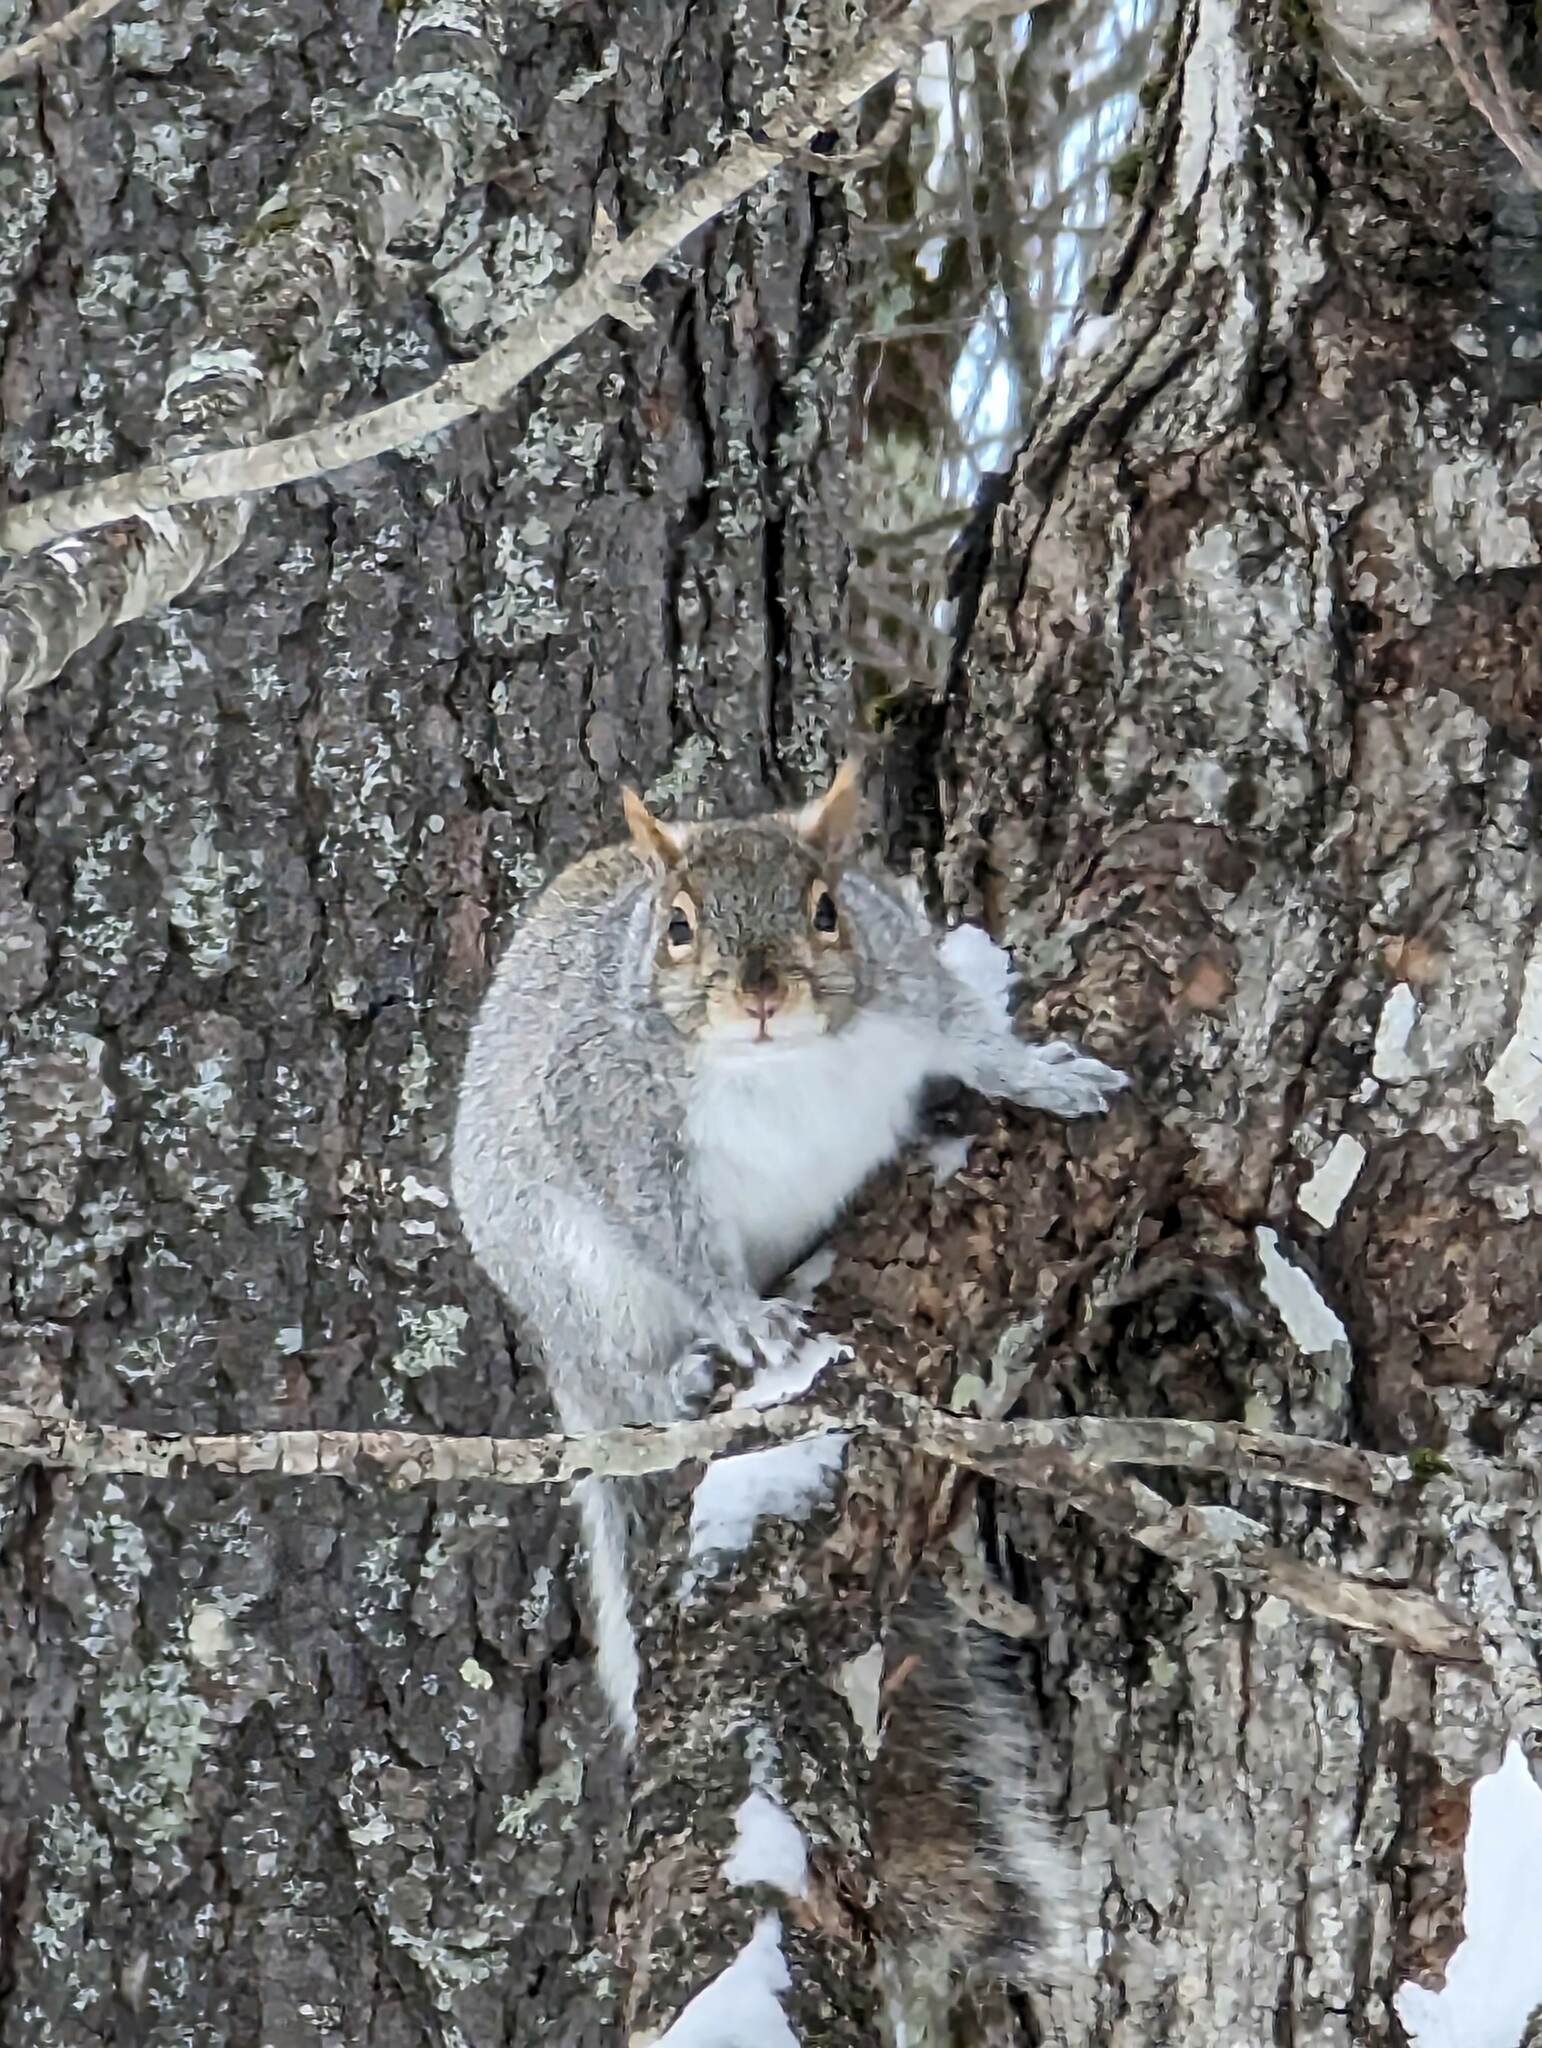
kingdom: Animalia
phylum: Chordata
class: Mammalia
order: Rodentia
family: Sciuridae
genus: Sciurus
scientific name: Sciurus carolinensis
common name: Eastern gray squirrel
